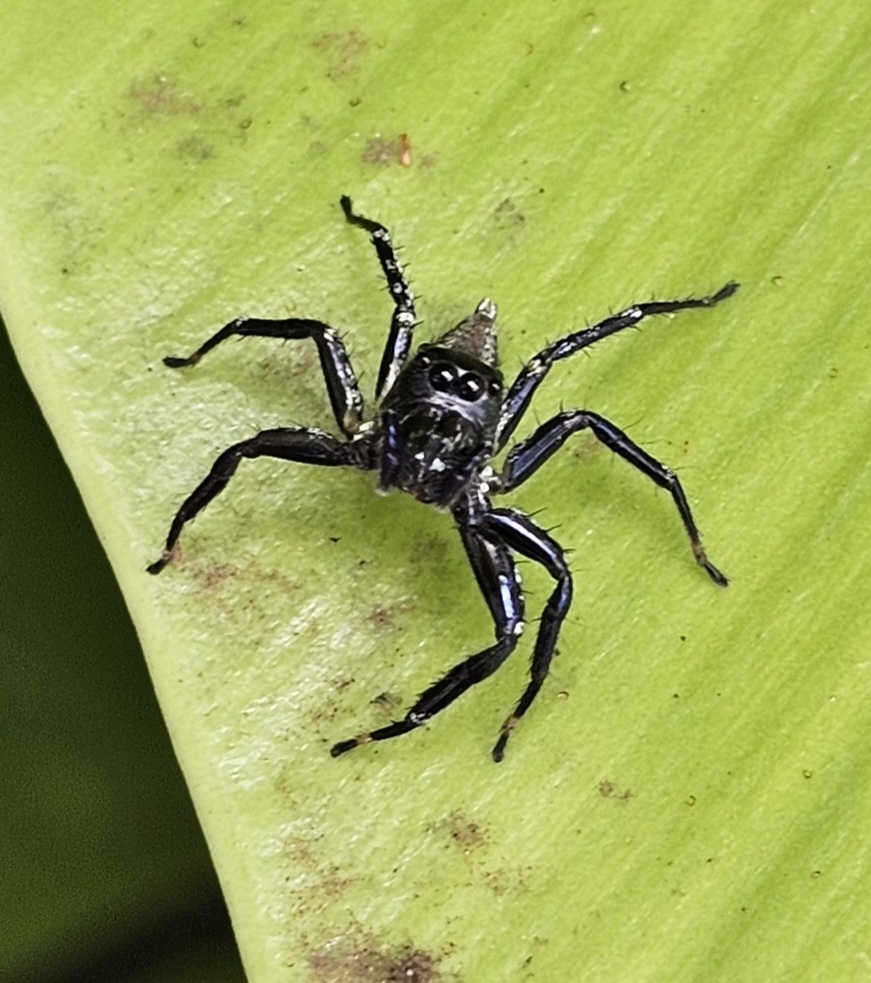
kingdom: Animalia
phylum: Arthropoda
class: Arachnida
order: Araneae
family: Salticidae
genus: Zenodorus
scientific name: Zenodorus swiftorum
